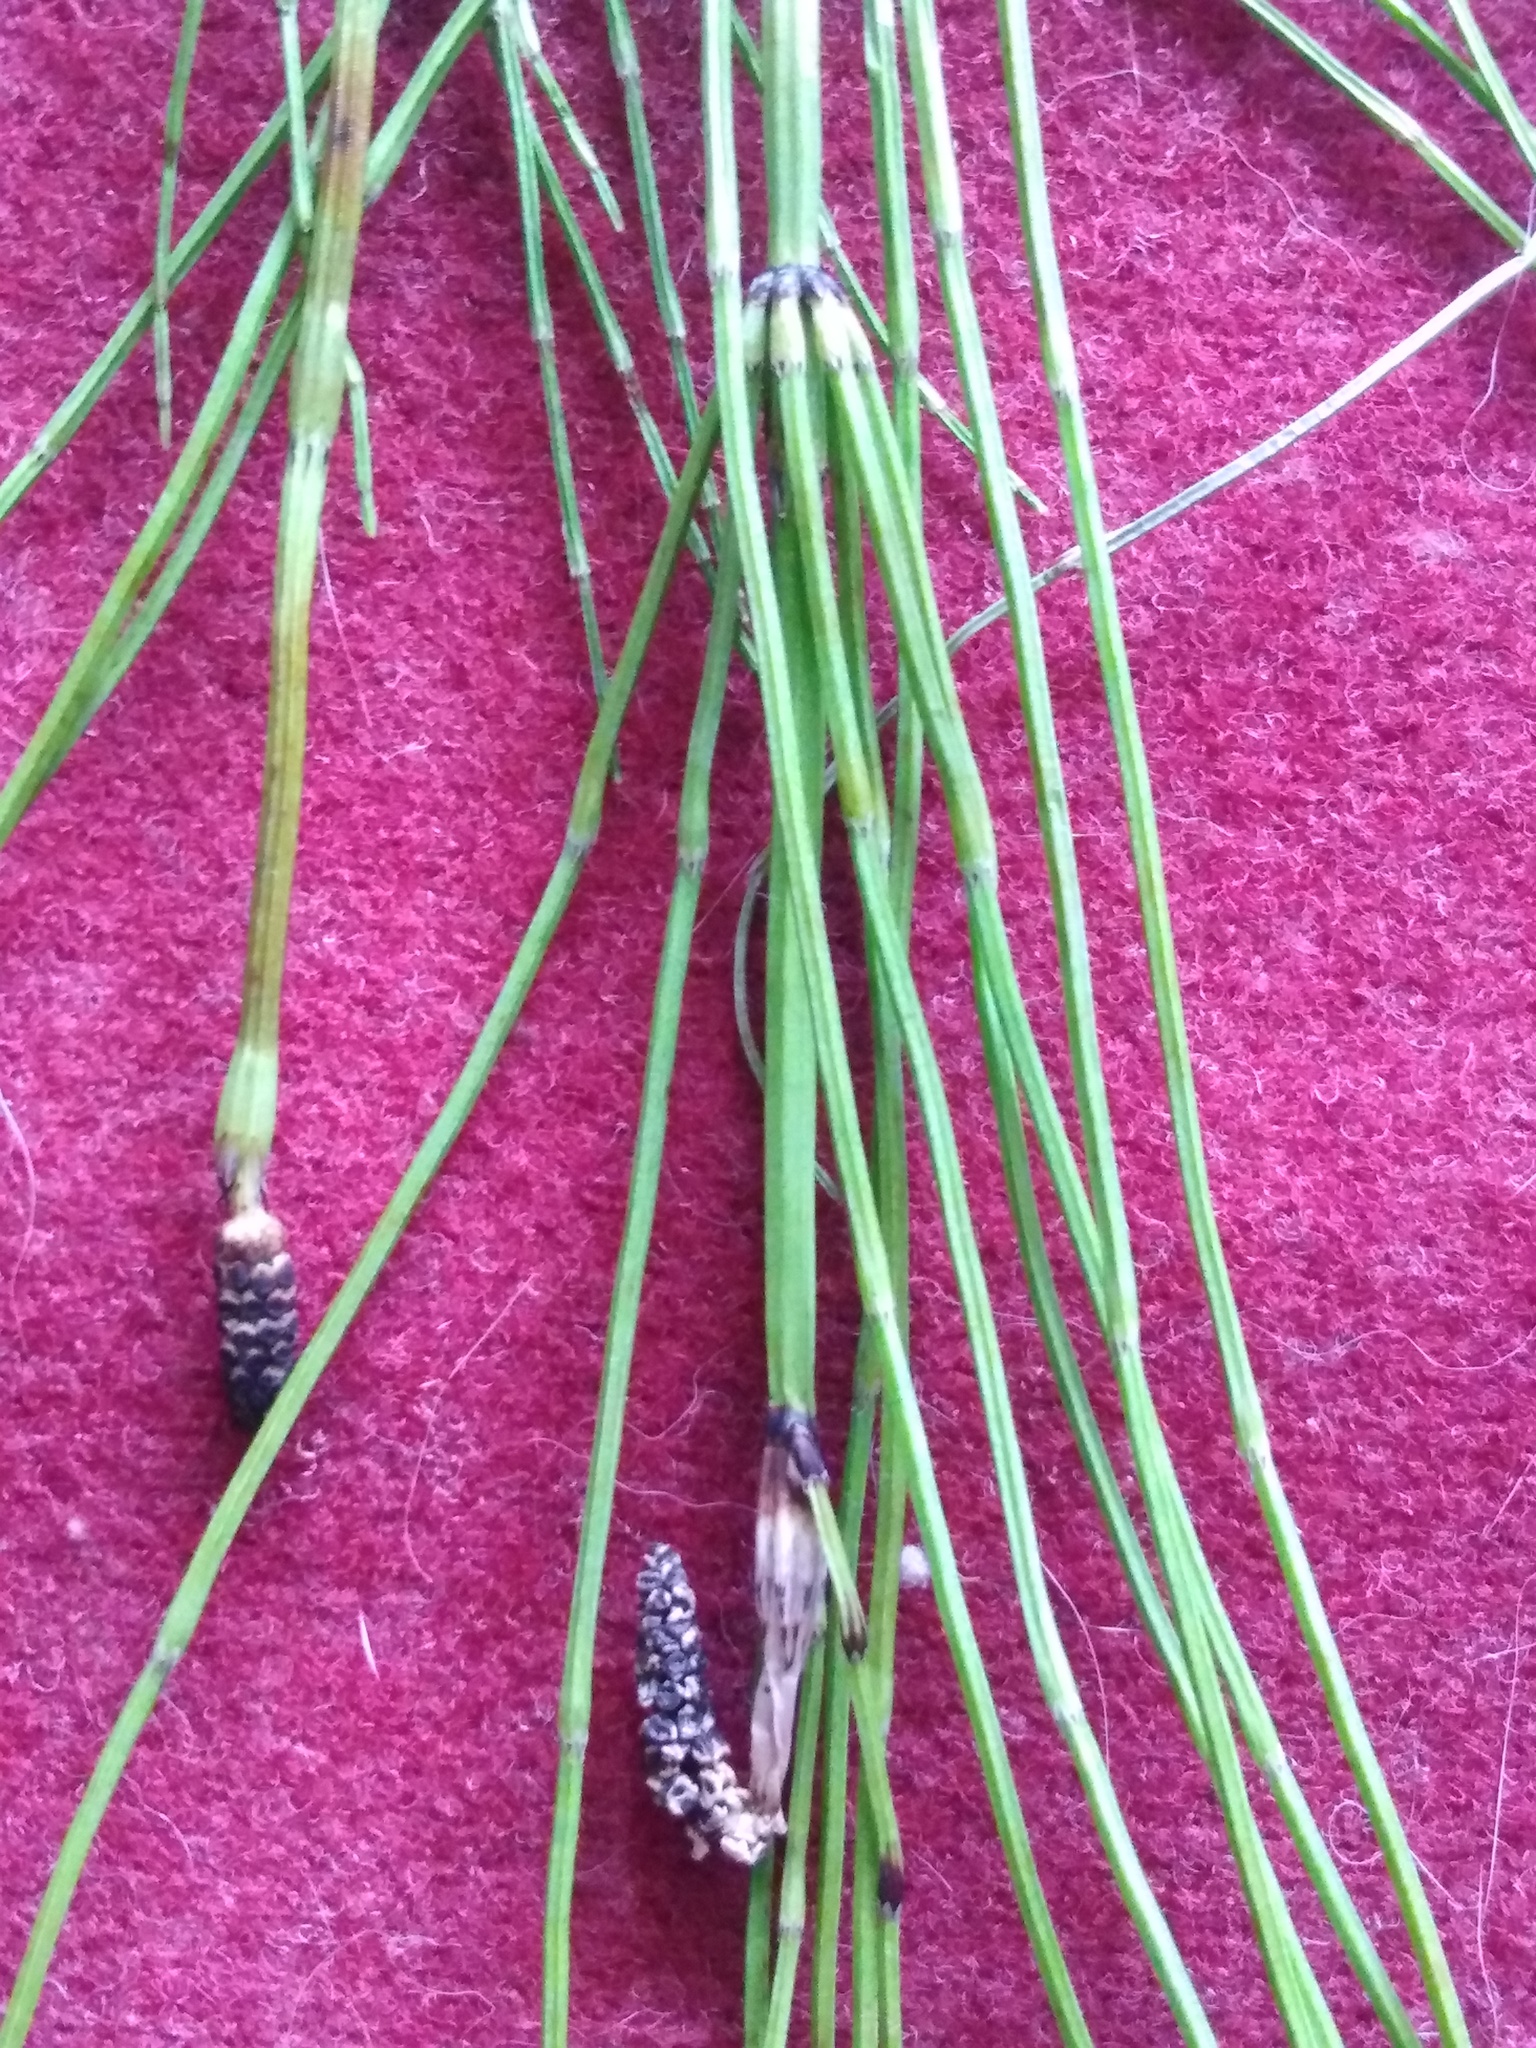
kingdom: Plantae
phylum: Tracheophyta
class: Polypodiopsida
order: Equisetales
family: Equisetaceae
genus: Equisetum
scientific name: Equisetum palustre
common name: Marsh horsetail
